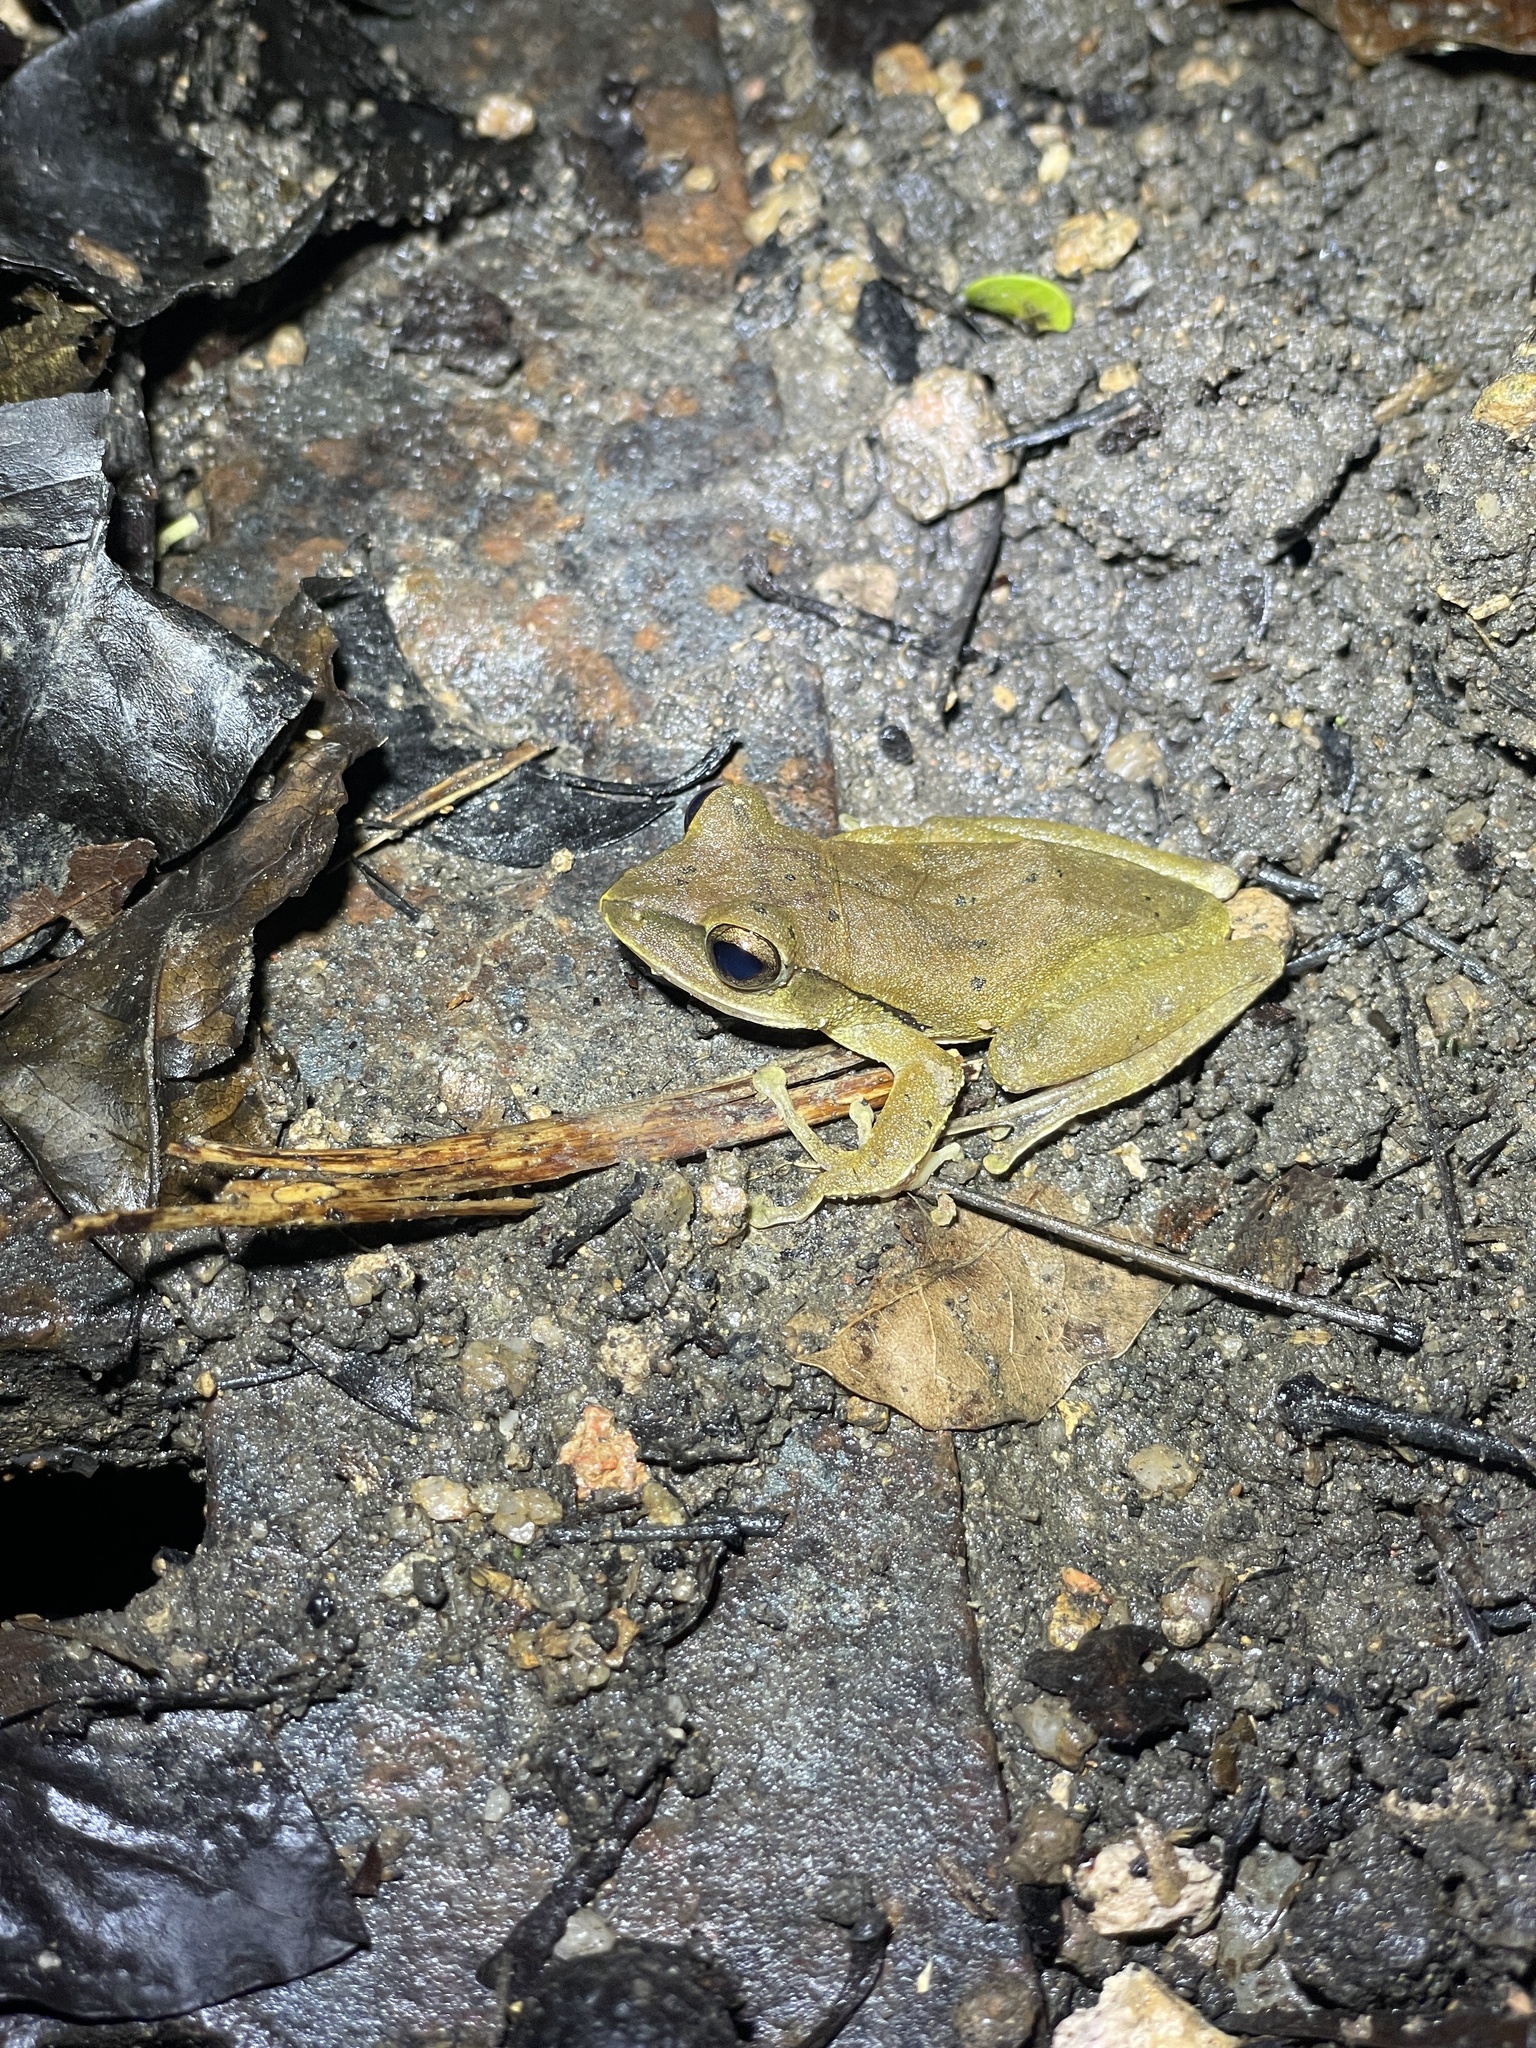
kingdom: Animalia
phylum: Chordata
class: Amphibia
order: Anura
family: Rhacophoridae
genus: Polypedates
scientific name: Polypedates megacephalus
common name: Hong kong whipping frog
